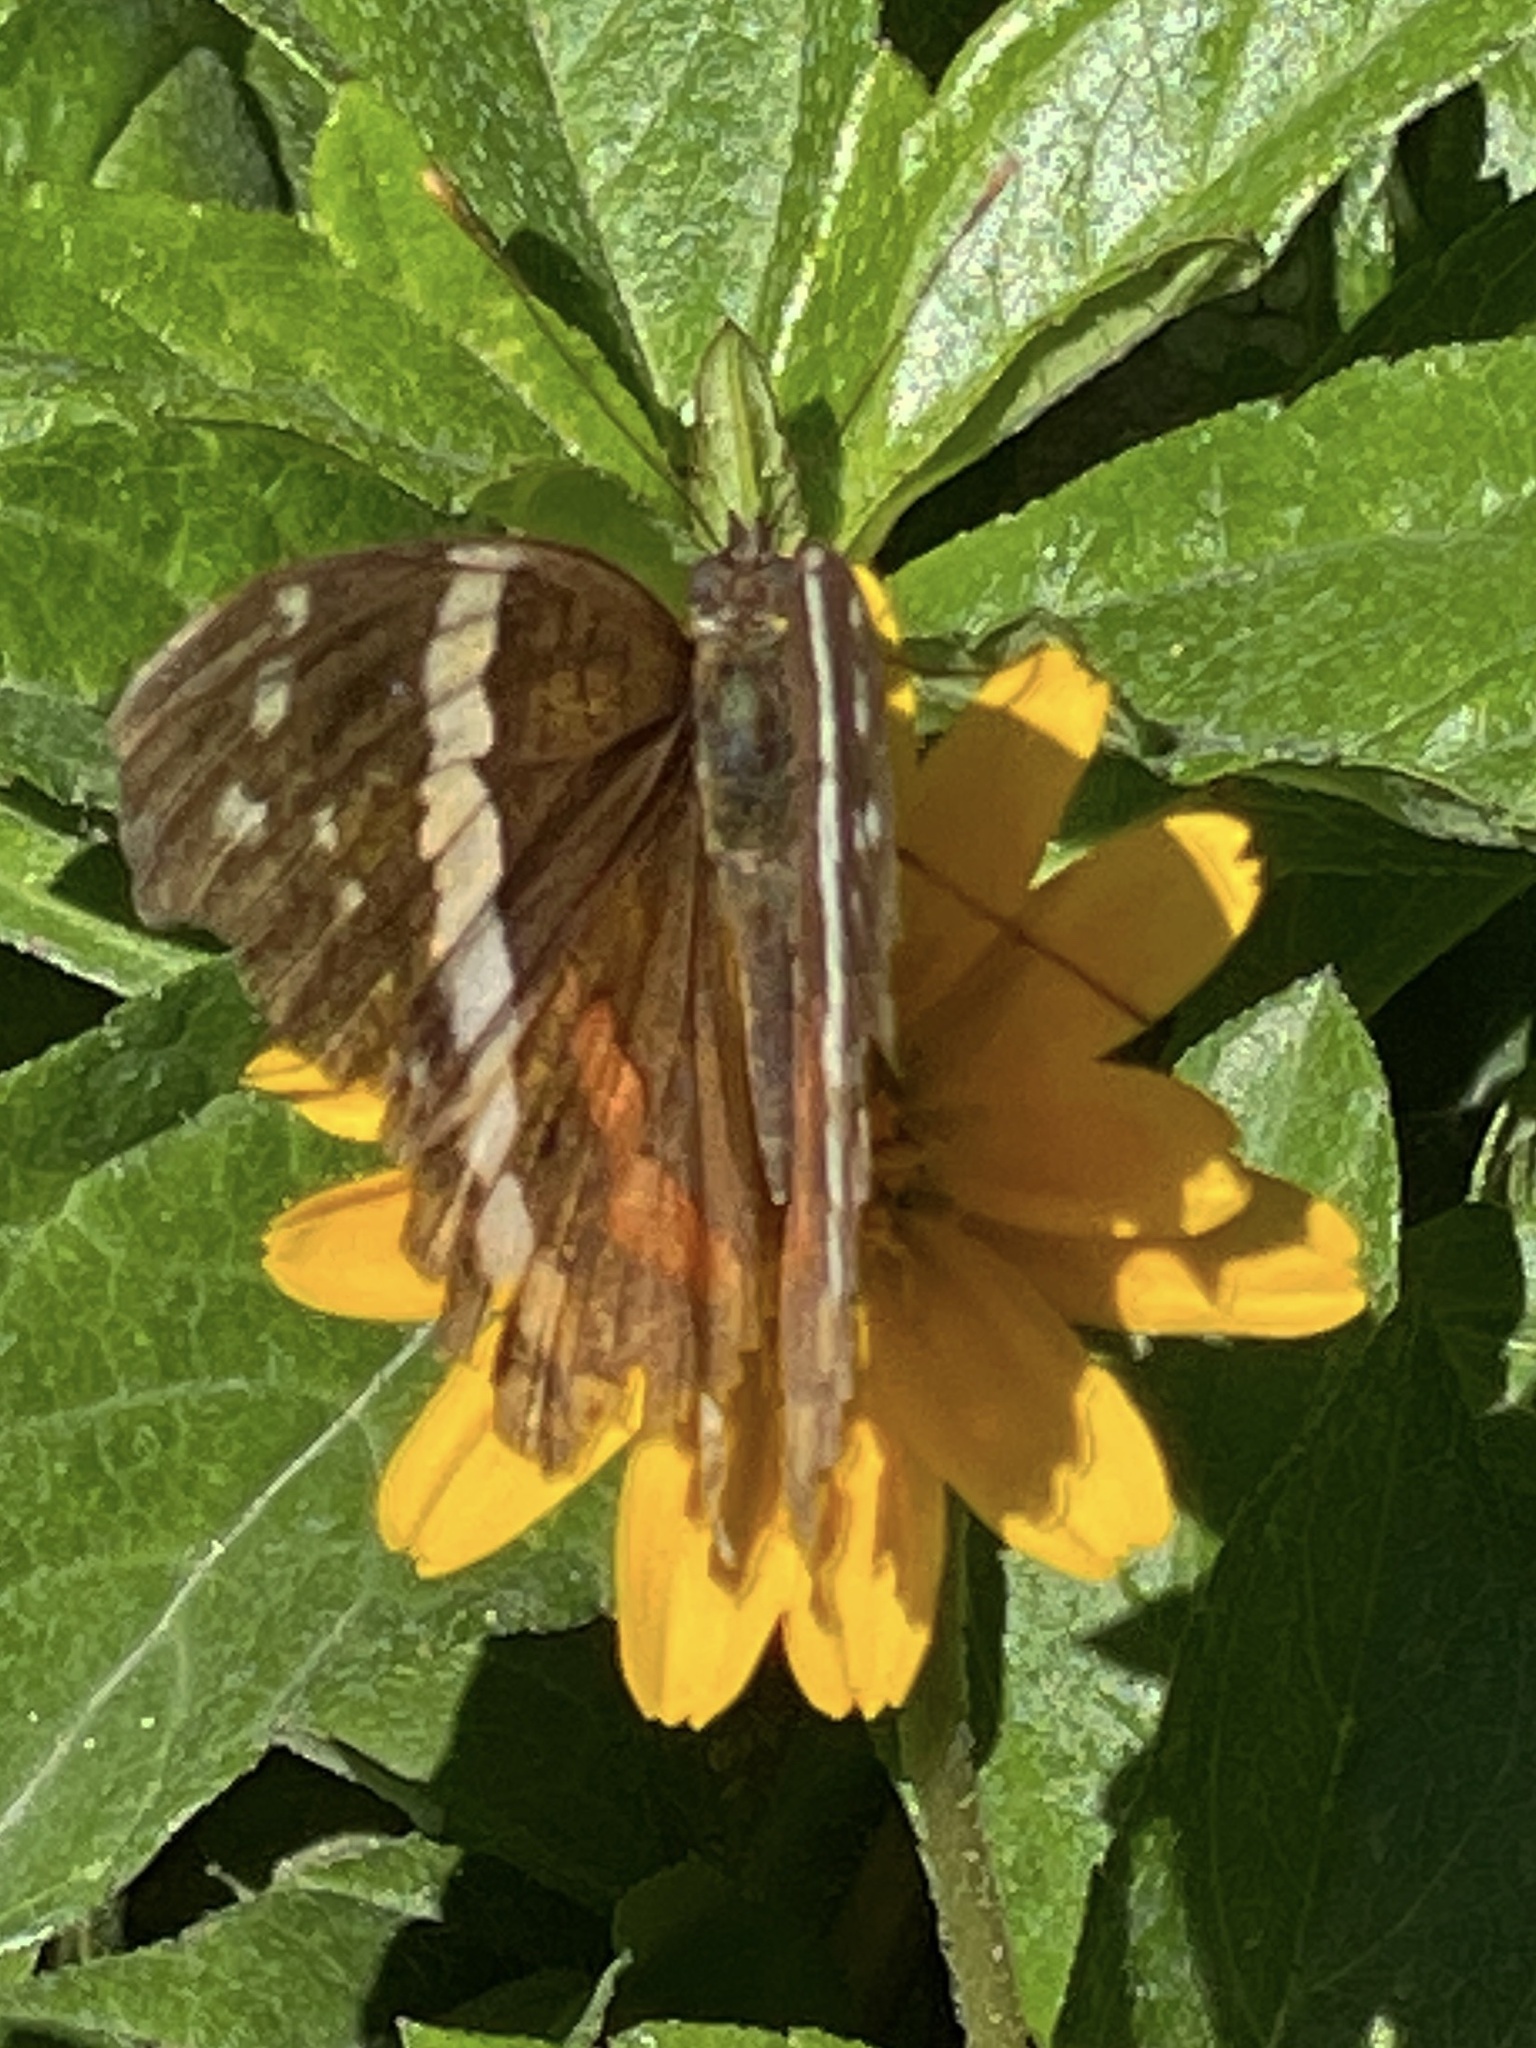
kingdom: Animalia
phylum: Arthropoda
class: Insecta
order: Lepidoptera
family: Nymphalidae
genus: Anartia
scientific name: Anartia fatima
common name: Banded peacock
